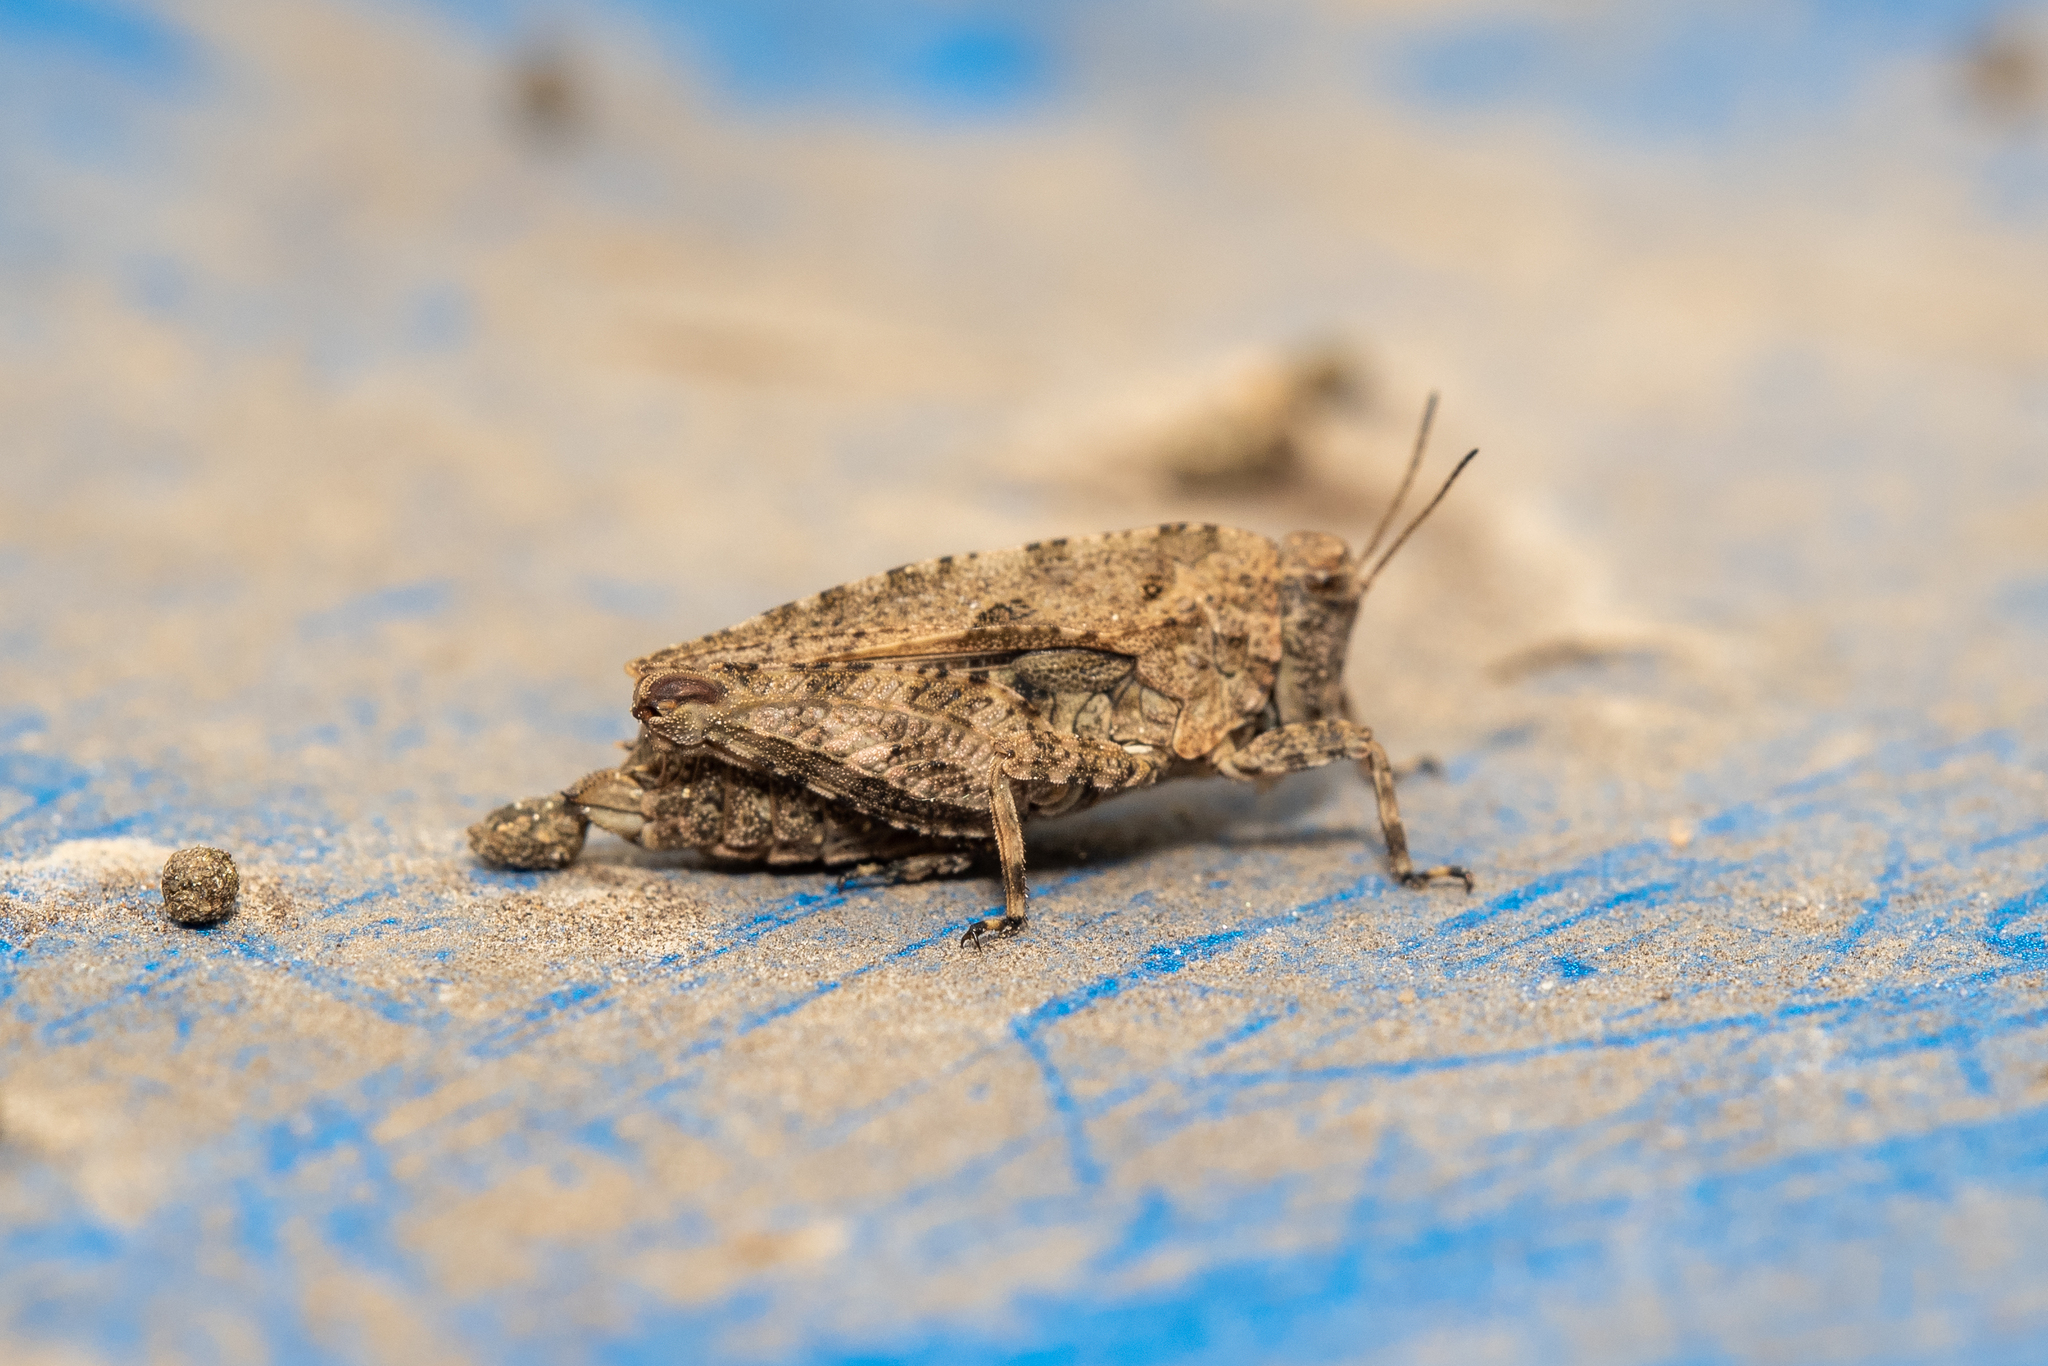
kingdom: Animalia
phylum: Arthropoda
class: Insecta
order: Orthoptera
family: Tetrigidae
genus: Tetrix
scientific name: Tetrix tenuicornis
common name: Long-horned groundhopper
